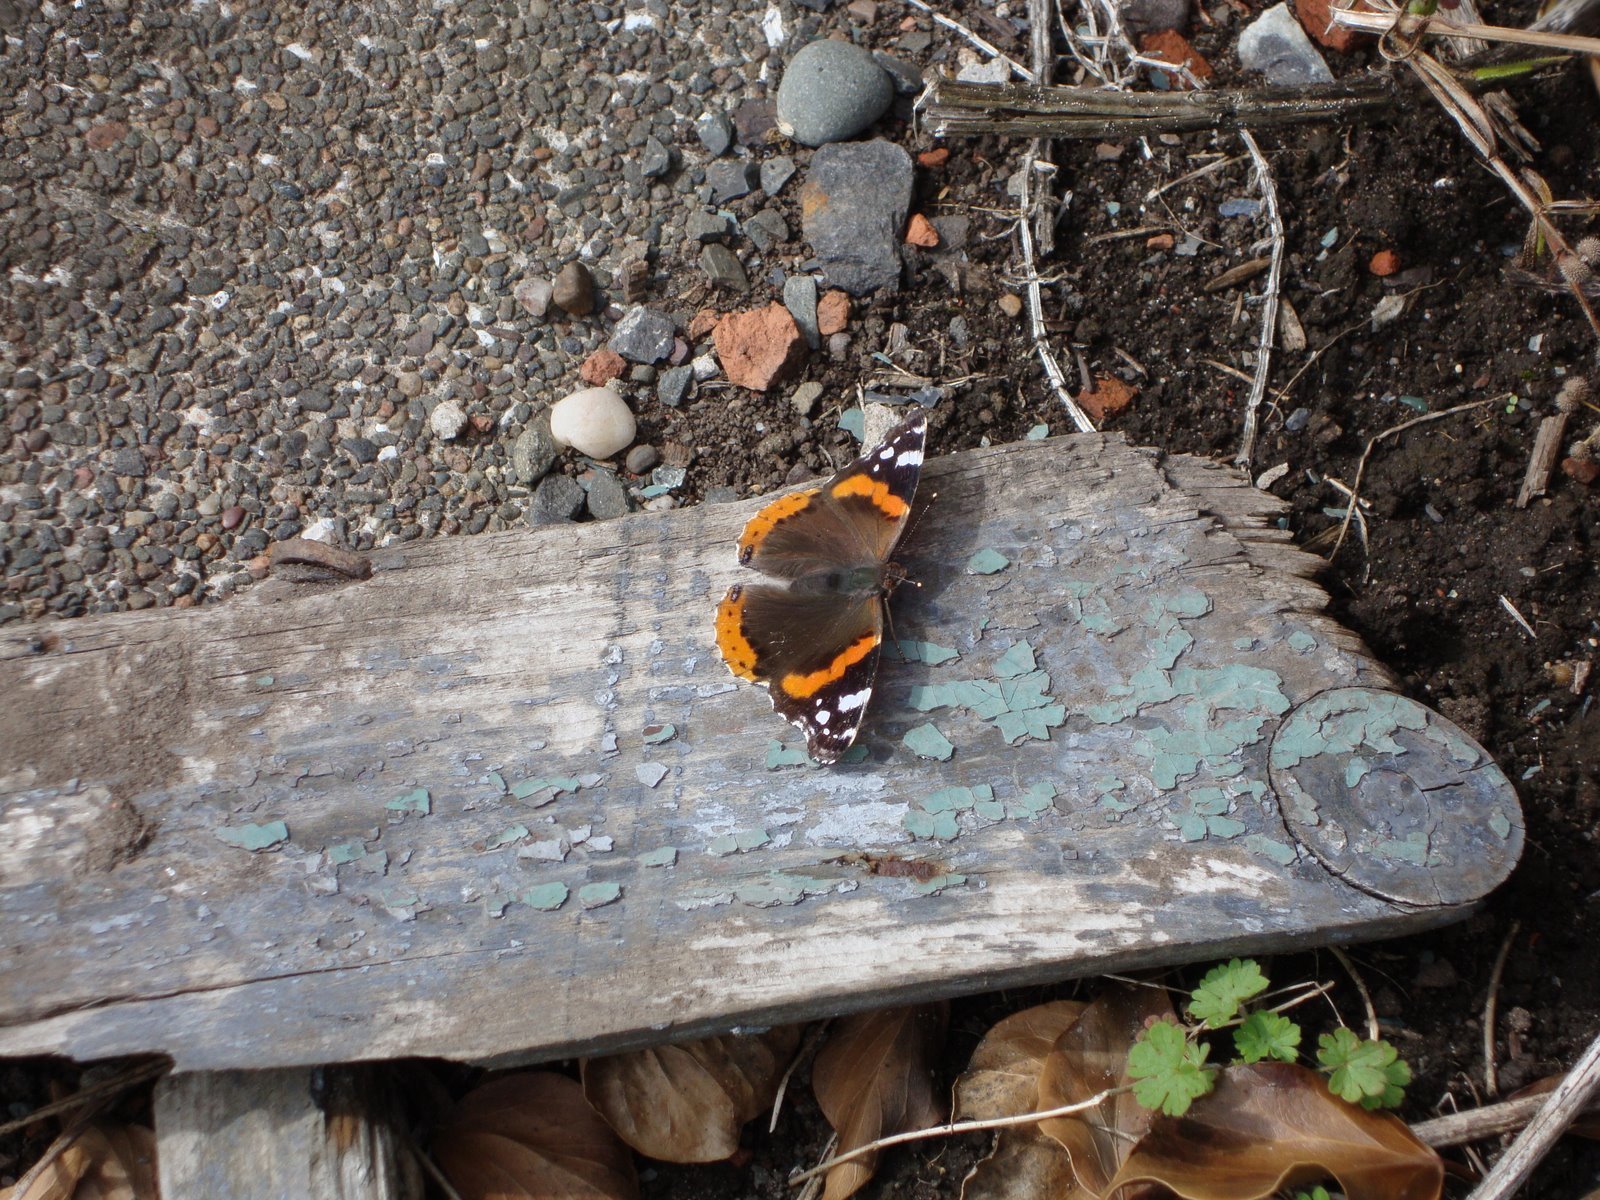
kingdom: Animalia
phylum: Arthropoda
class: Insecta
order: Lepidoptera
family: Nymphalidae
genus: Vanessa
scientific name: Vanessa atalanta
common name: Red admiral
